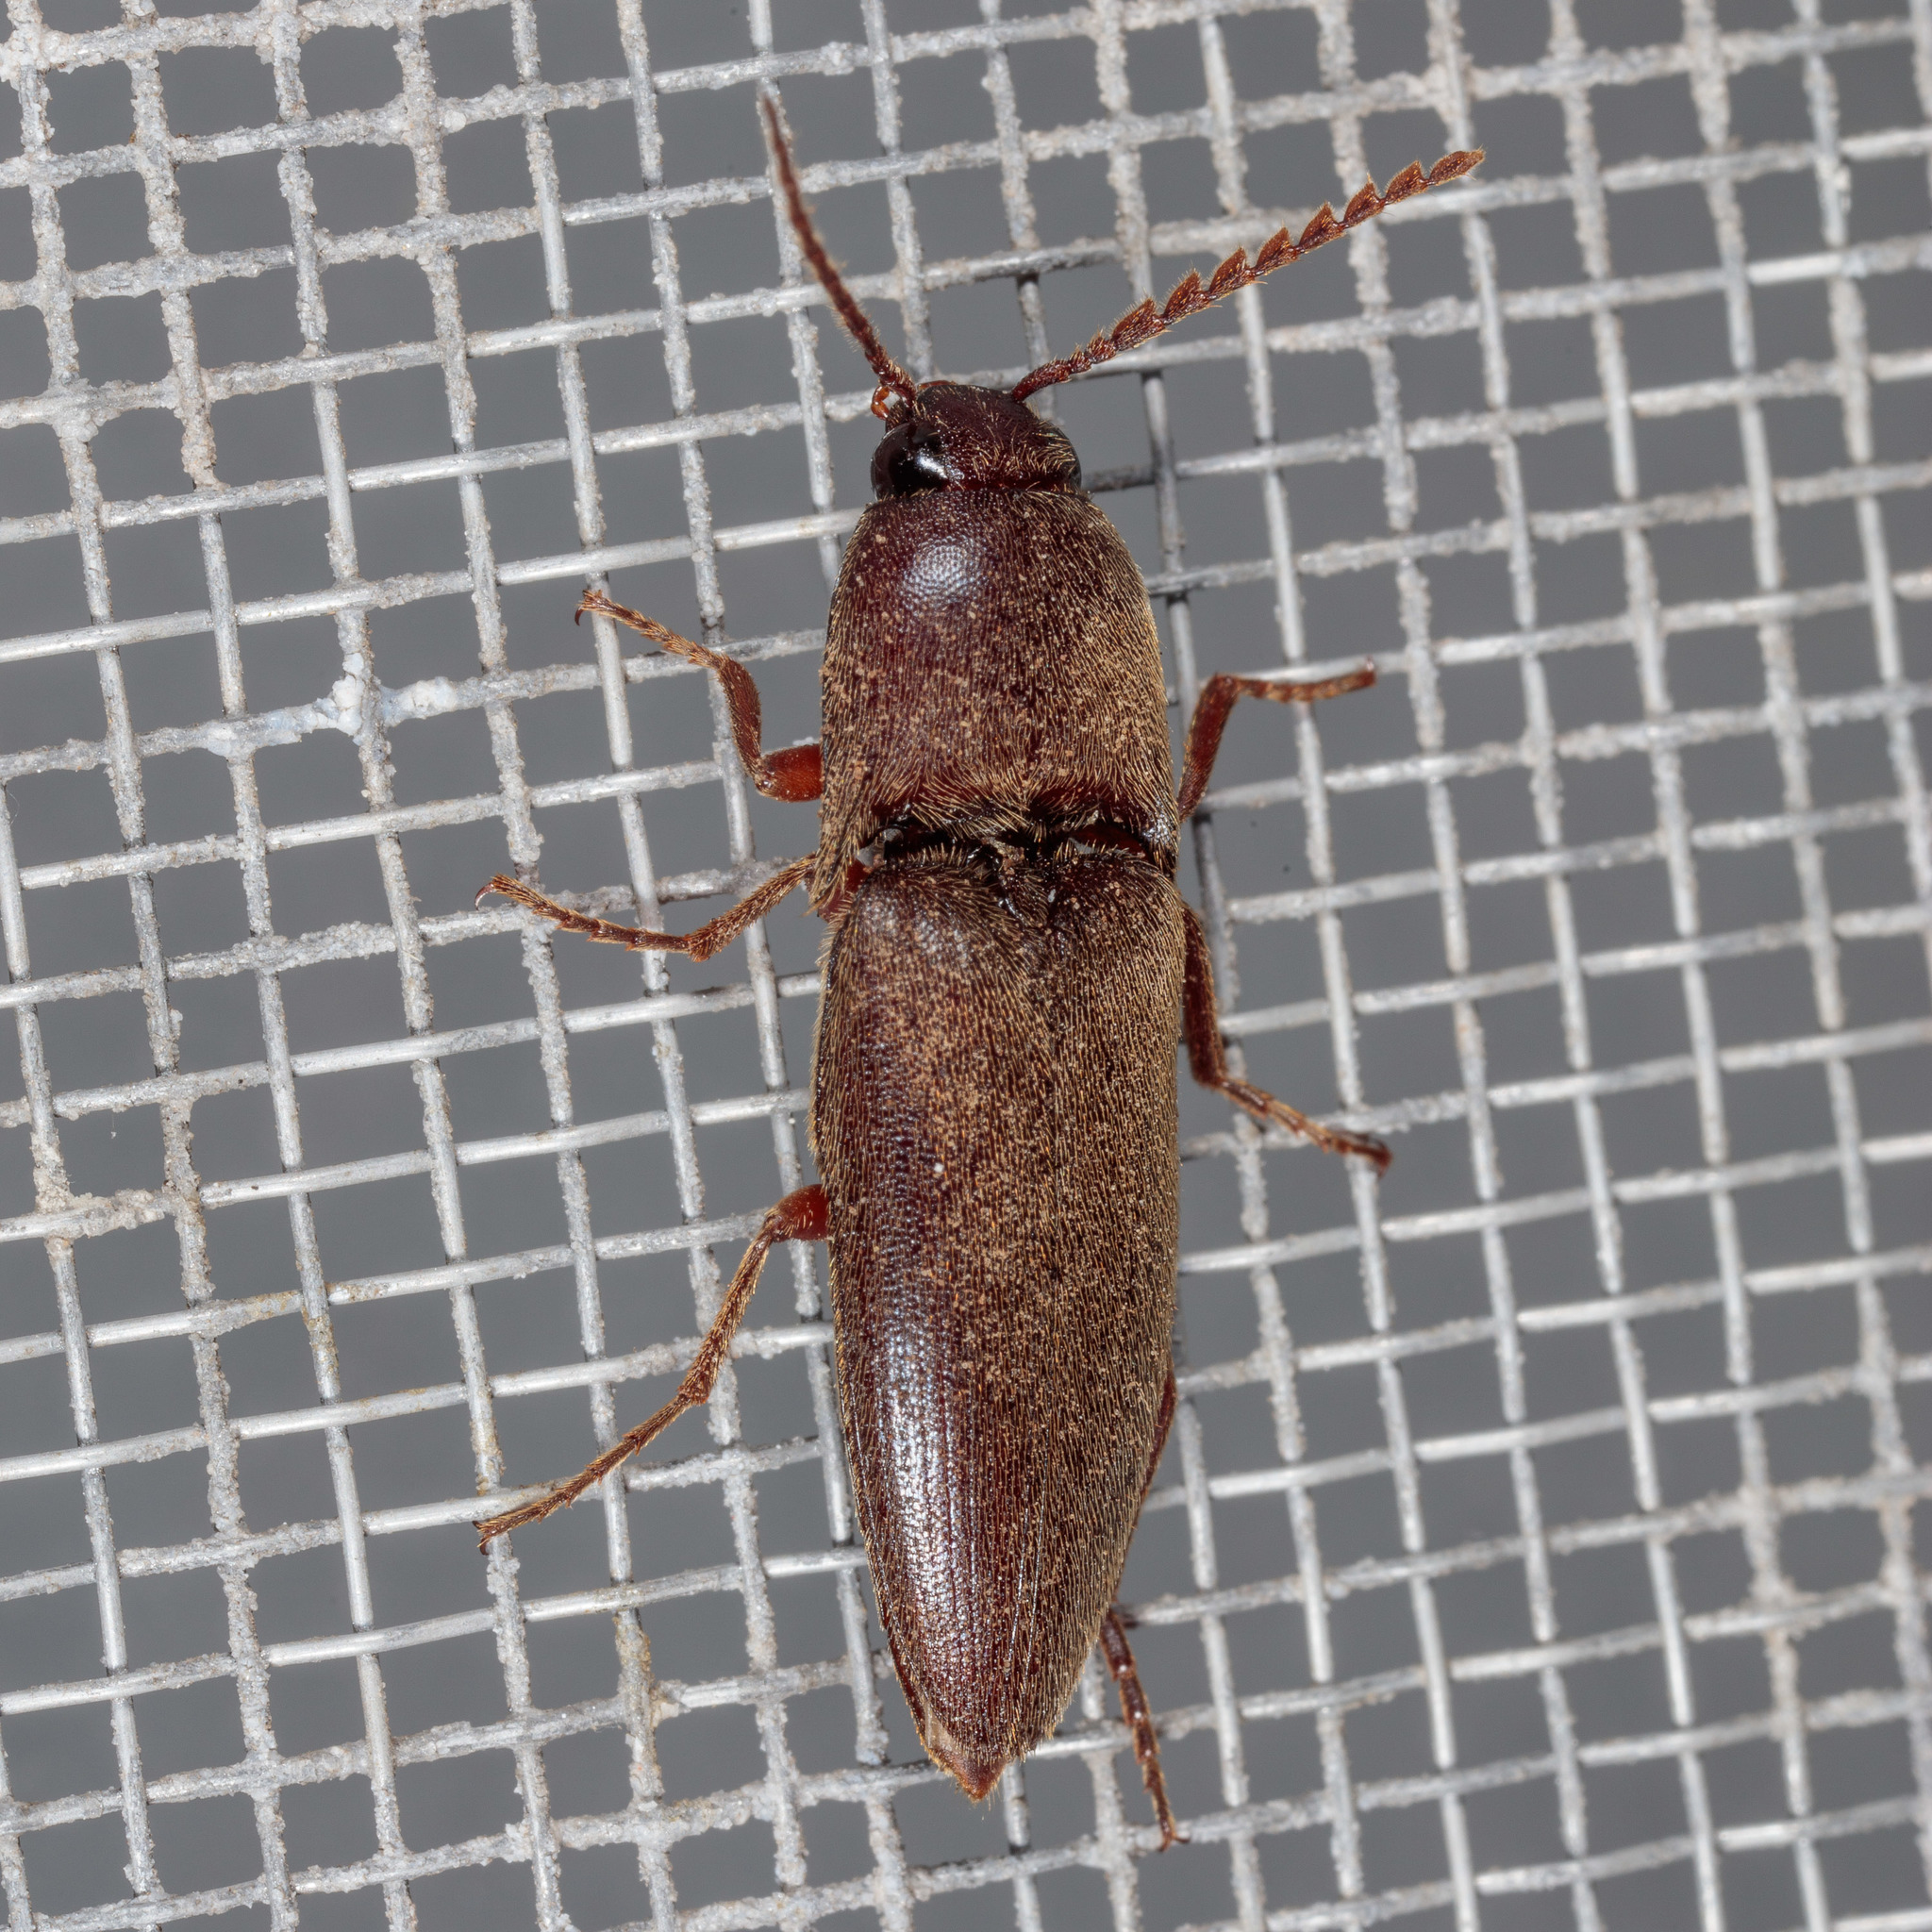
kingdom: Animalia
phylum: Arthropoda
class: Insecta
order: Coleoptera
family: Elateridae
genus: Diplostethus
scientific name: Diplostethus
